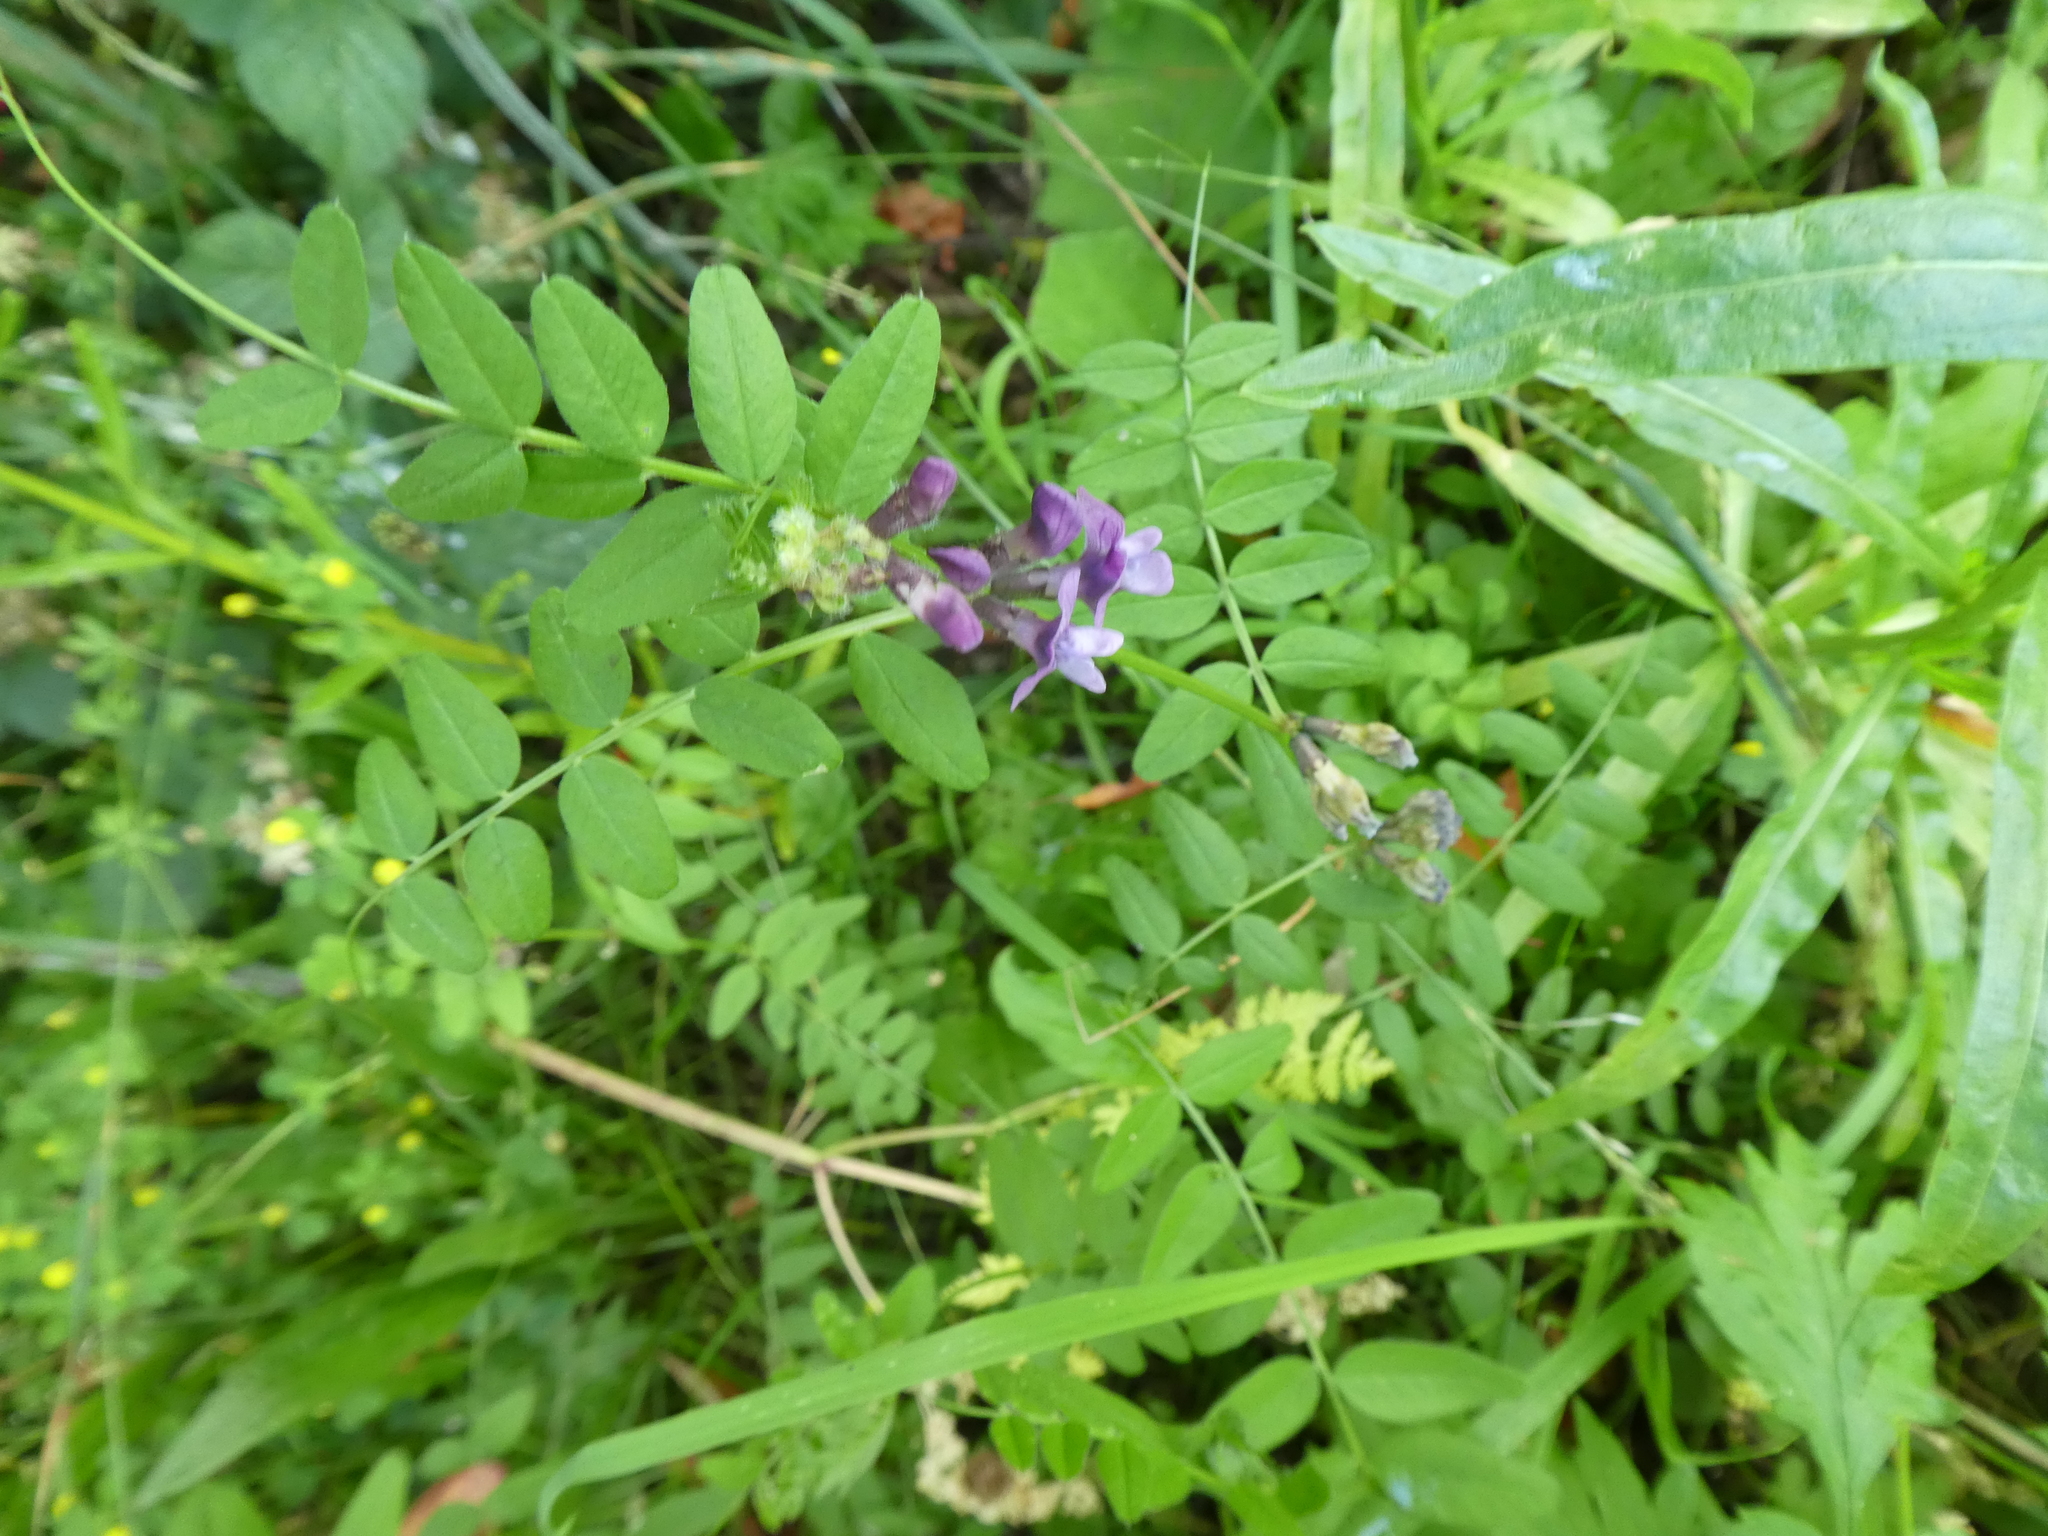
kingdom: Plantae
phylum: Tracheophyta
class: Magnoliopsida
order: Fabales
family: Fabaceae
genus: Vicia
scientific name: Vicia sepium
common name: Bush vetch
